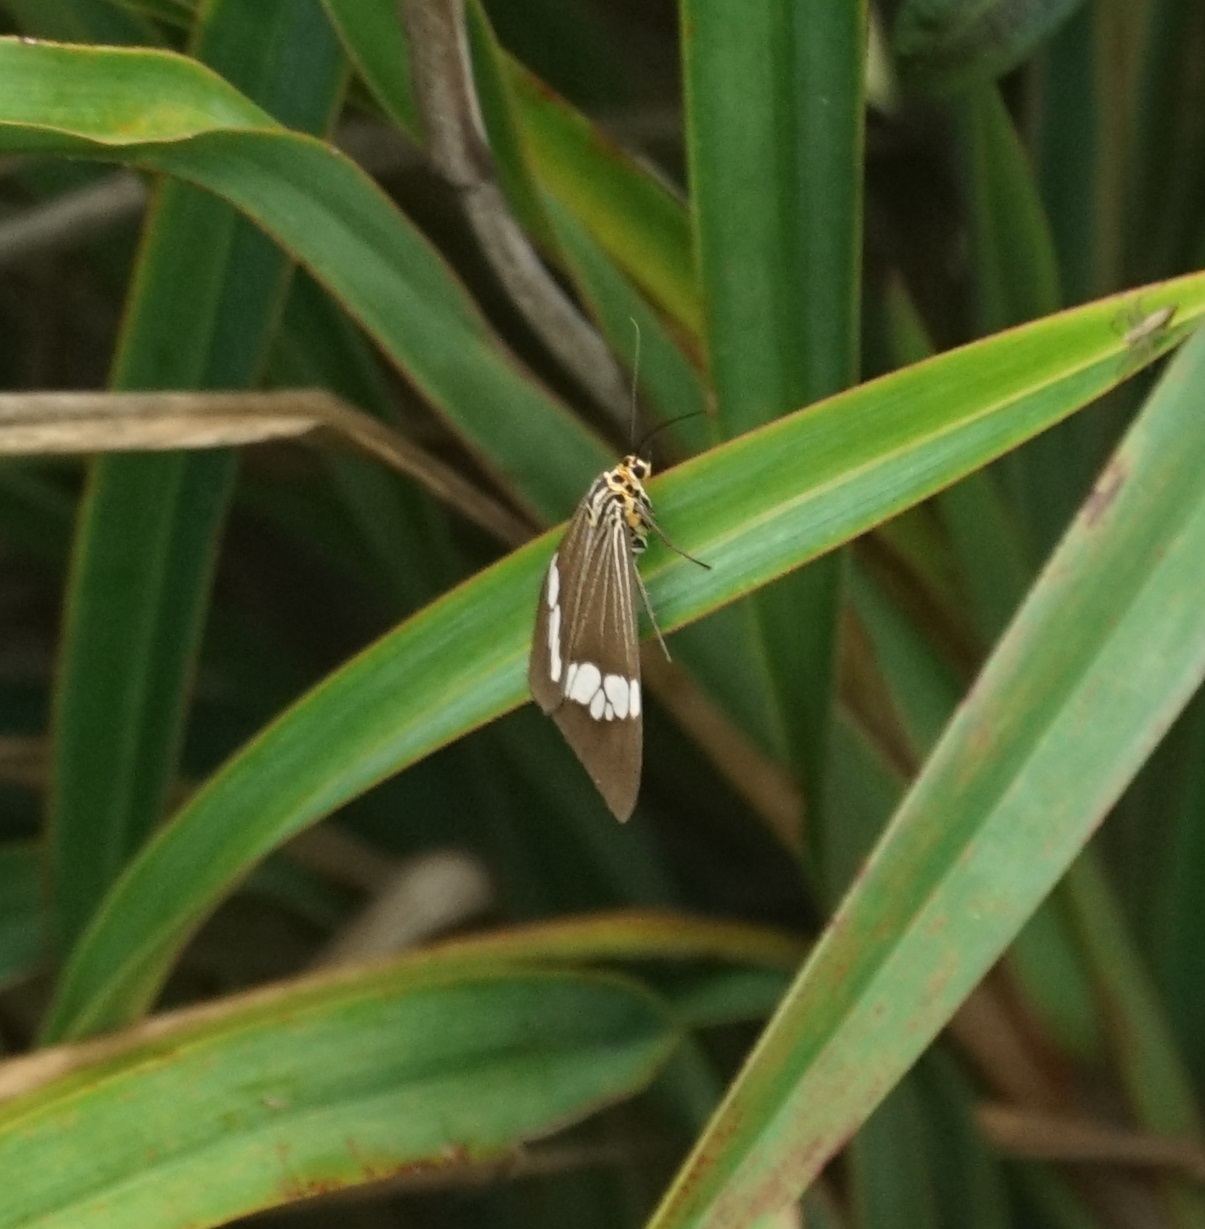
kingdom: Animalia
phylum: Arthropoda
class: Insecta
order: Lepidoptera
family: Erebidae
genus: Nyctemera
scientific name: Nyctemera baulus
